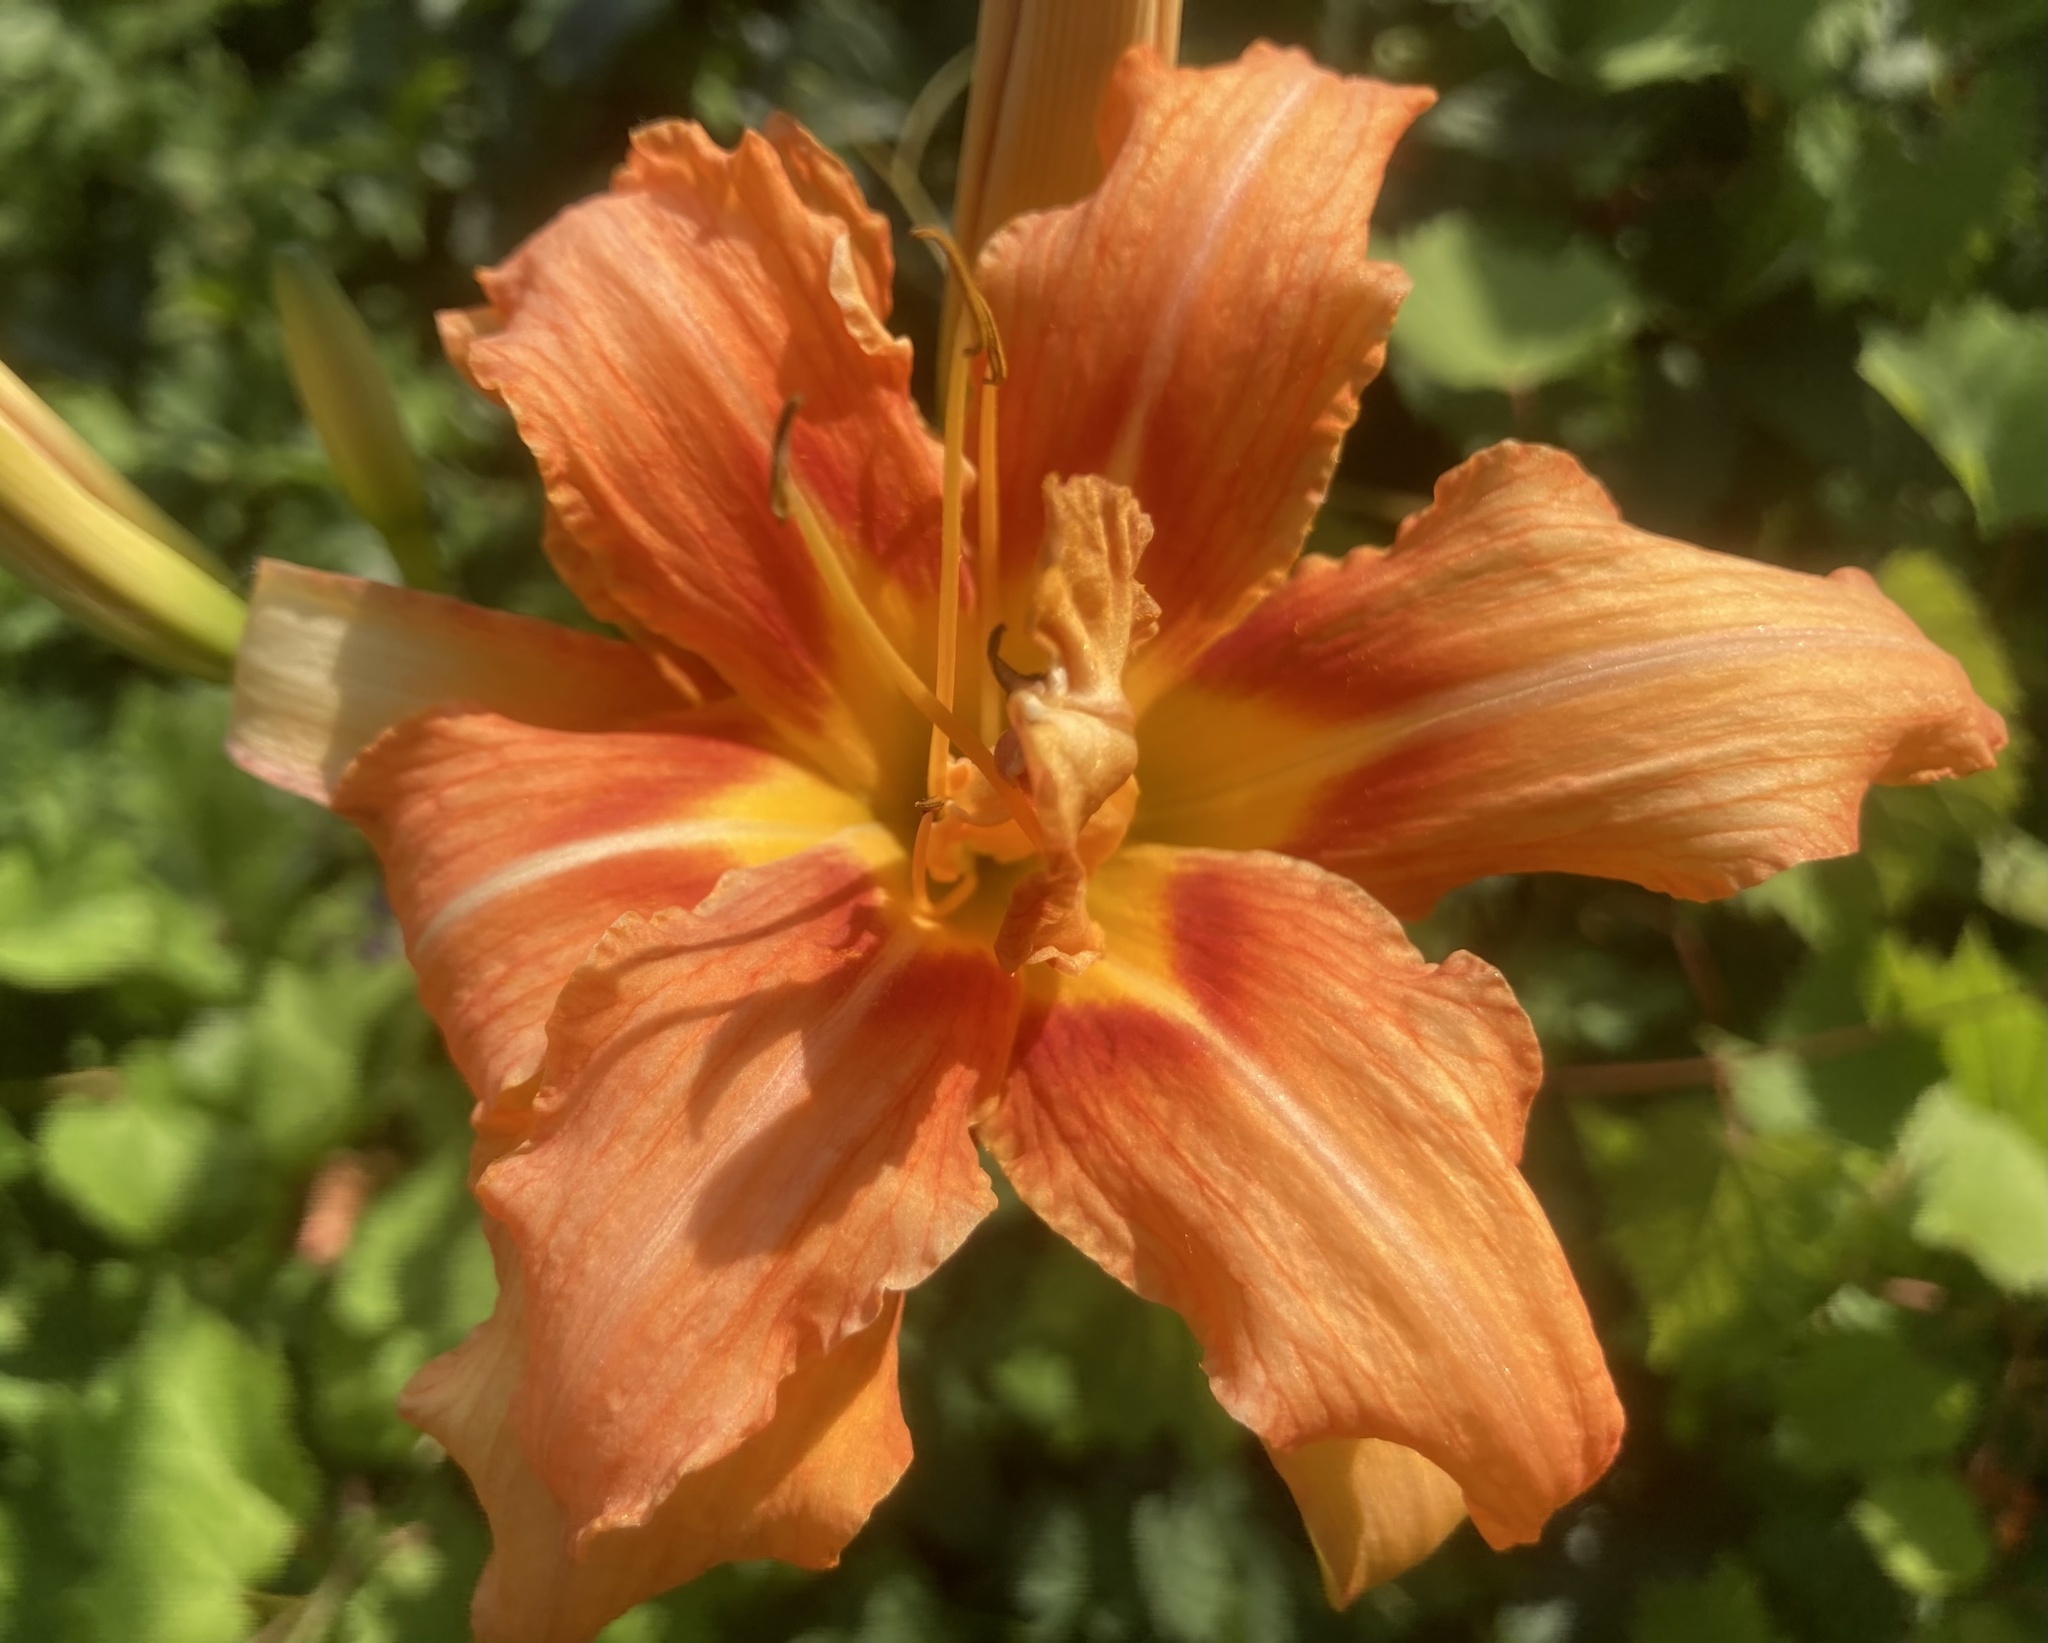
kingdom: Plantae
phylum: Tracheophyta
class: Liliopsida
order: Asparagales
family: Asphodelaceae
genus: Hemerocallis
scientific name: Hemerocallis fulva
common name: Orange day-lily
